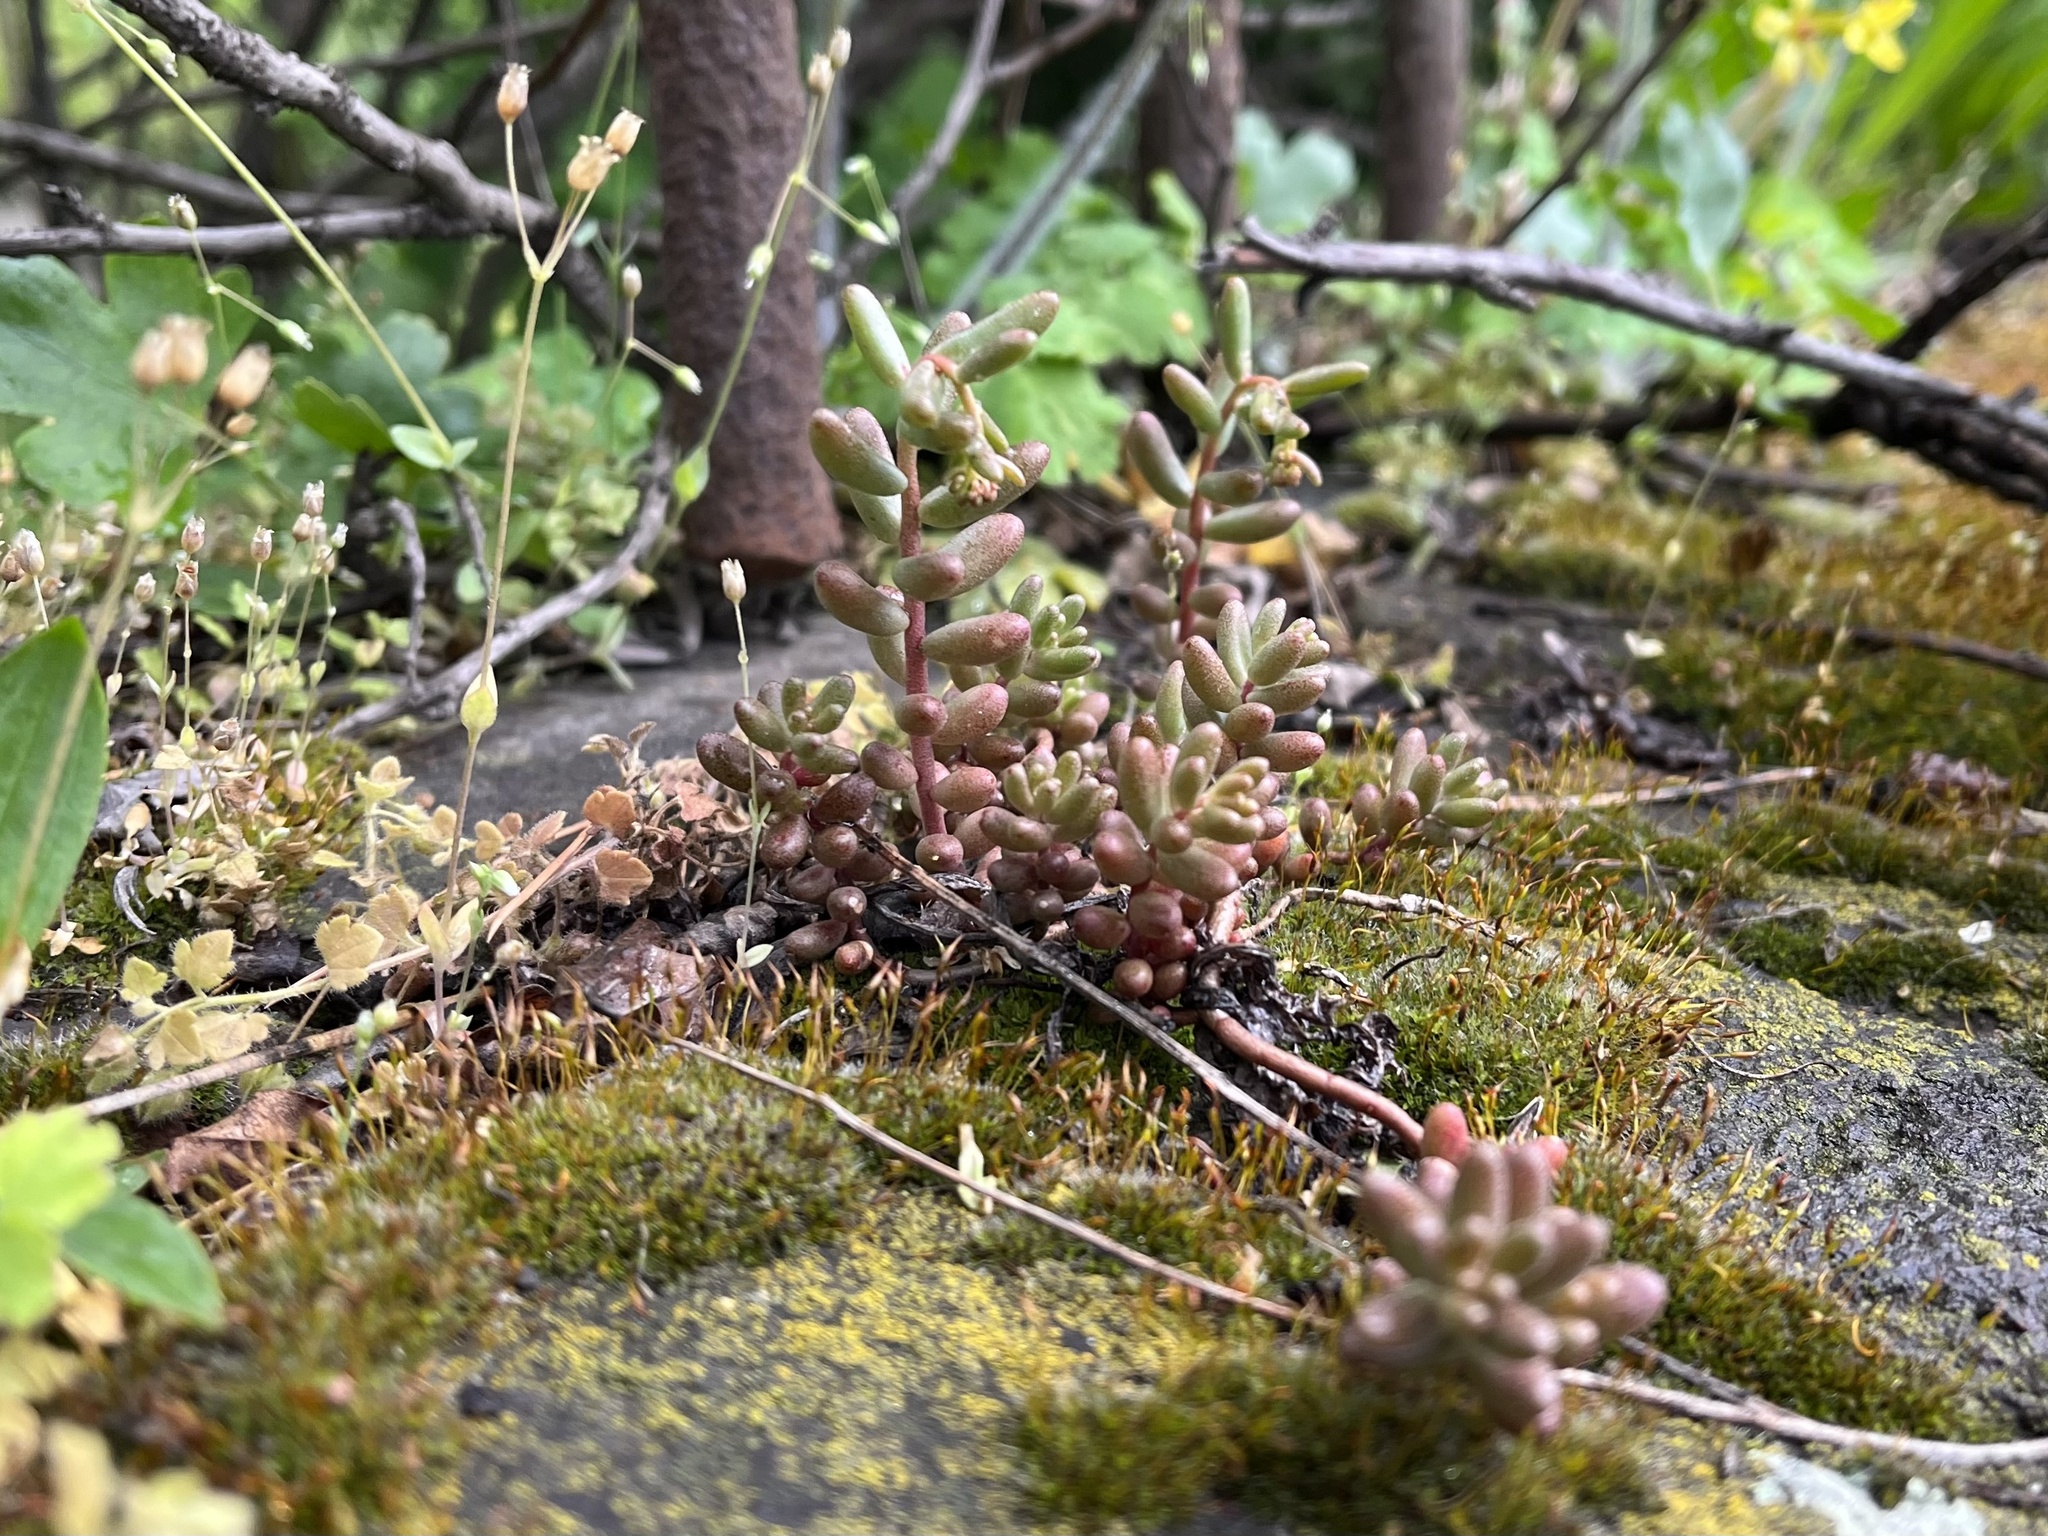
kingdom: Plantae
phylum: Tracheophyta
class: Magnoliopsida
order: Saxifragales
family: Crassulaceae
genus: Sedum
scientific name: Sedum album
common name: White stonecrop
